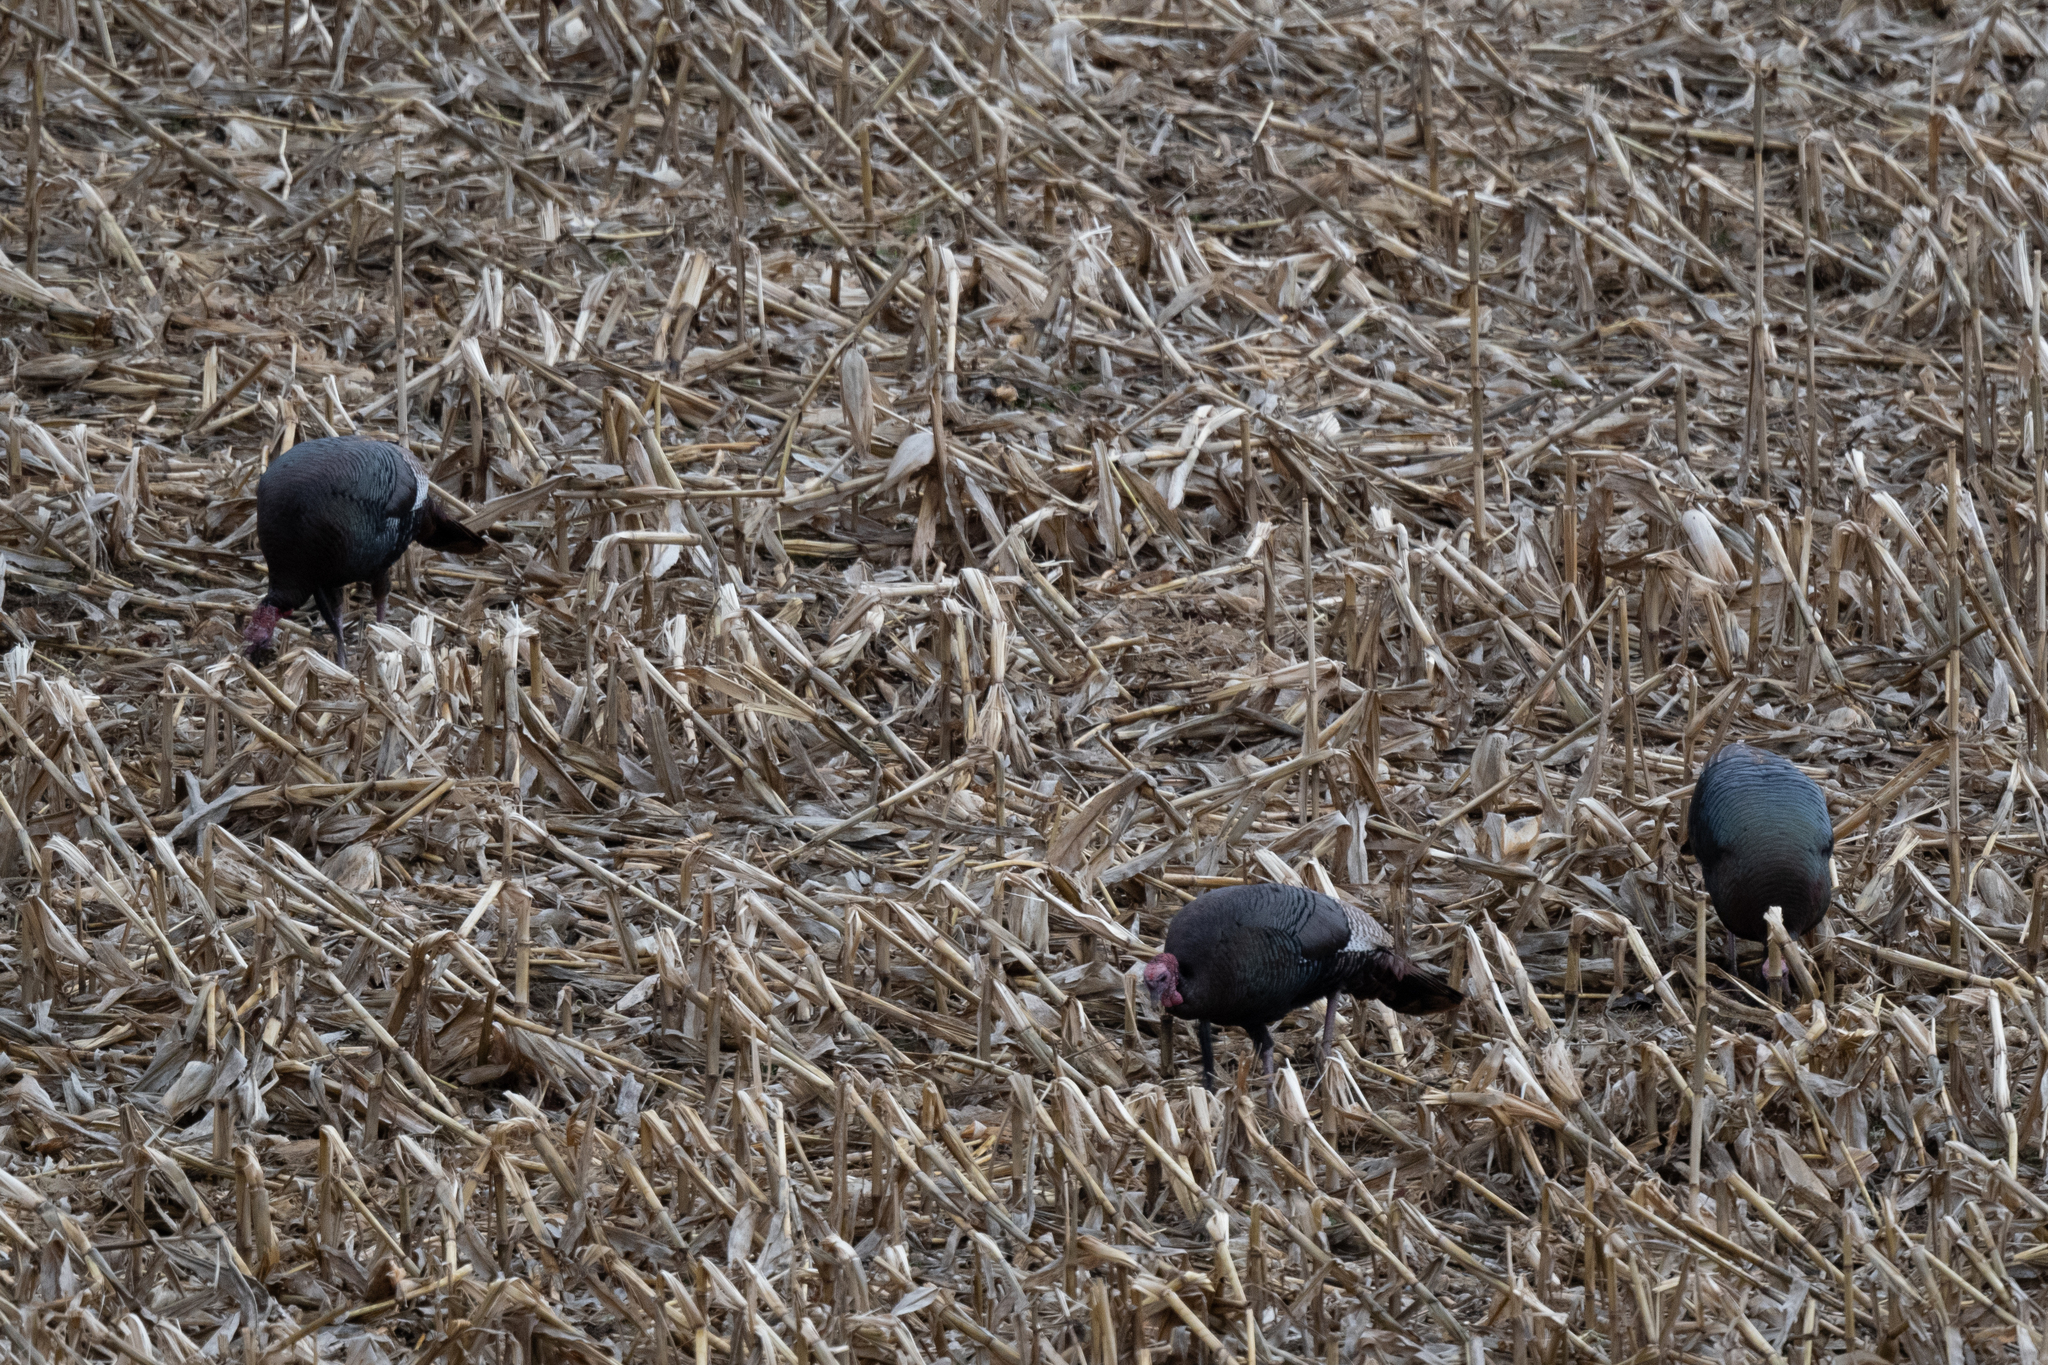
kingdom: Animalia
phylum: Chordata
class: Aves
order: Galliformes
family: Phasianidae
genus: Meleagris
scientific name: Meleagris gallopavo
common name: Wild turkey
